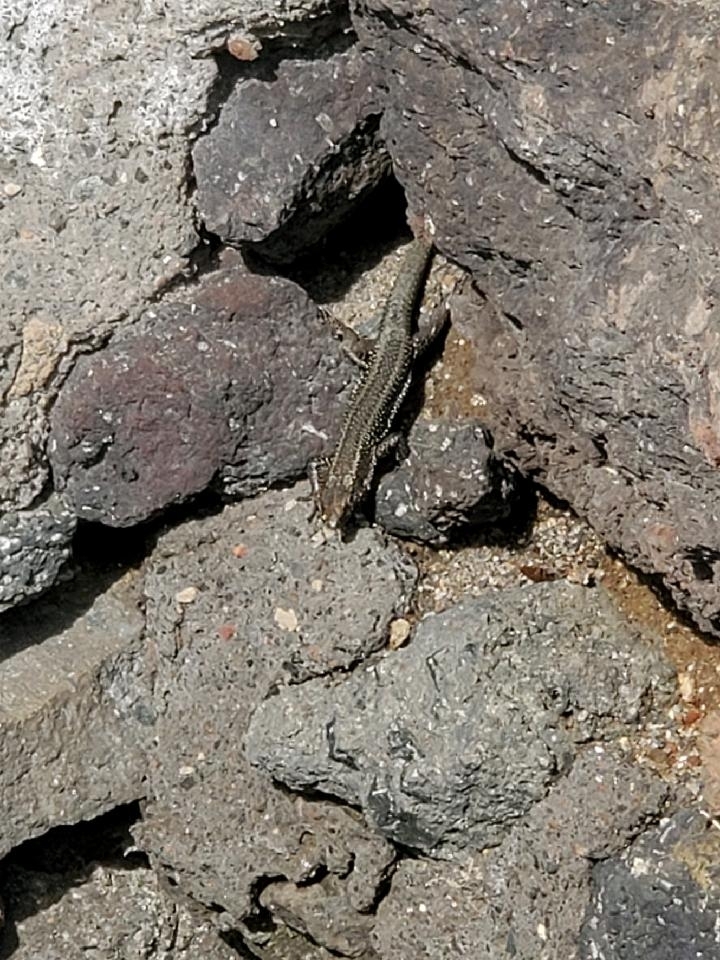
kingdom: Animalia
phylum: Chordata
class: Squamata
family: Lacertidae
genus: Teira
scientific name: Teira dugesii
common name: Madeira lizard
